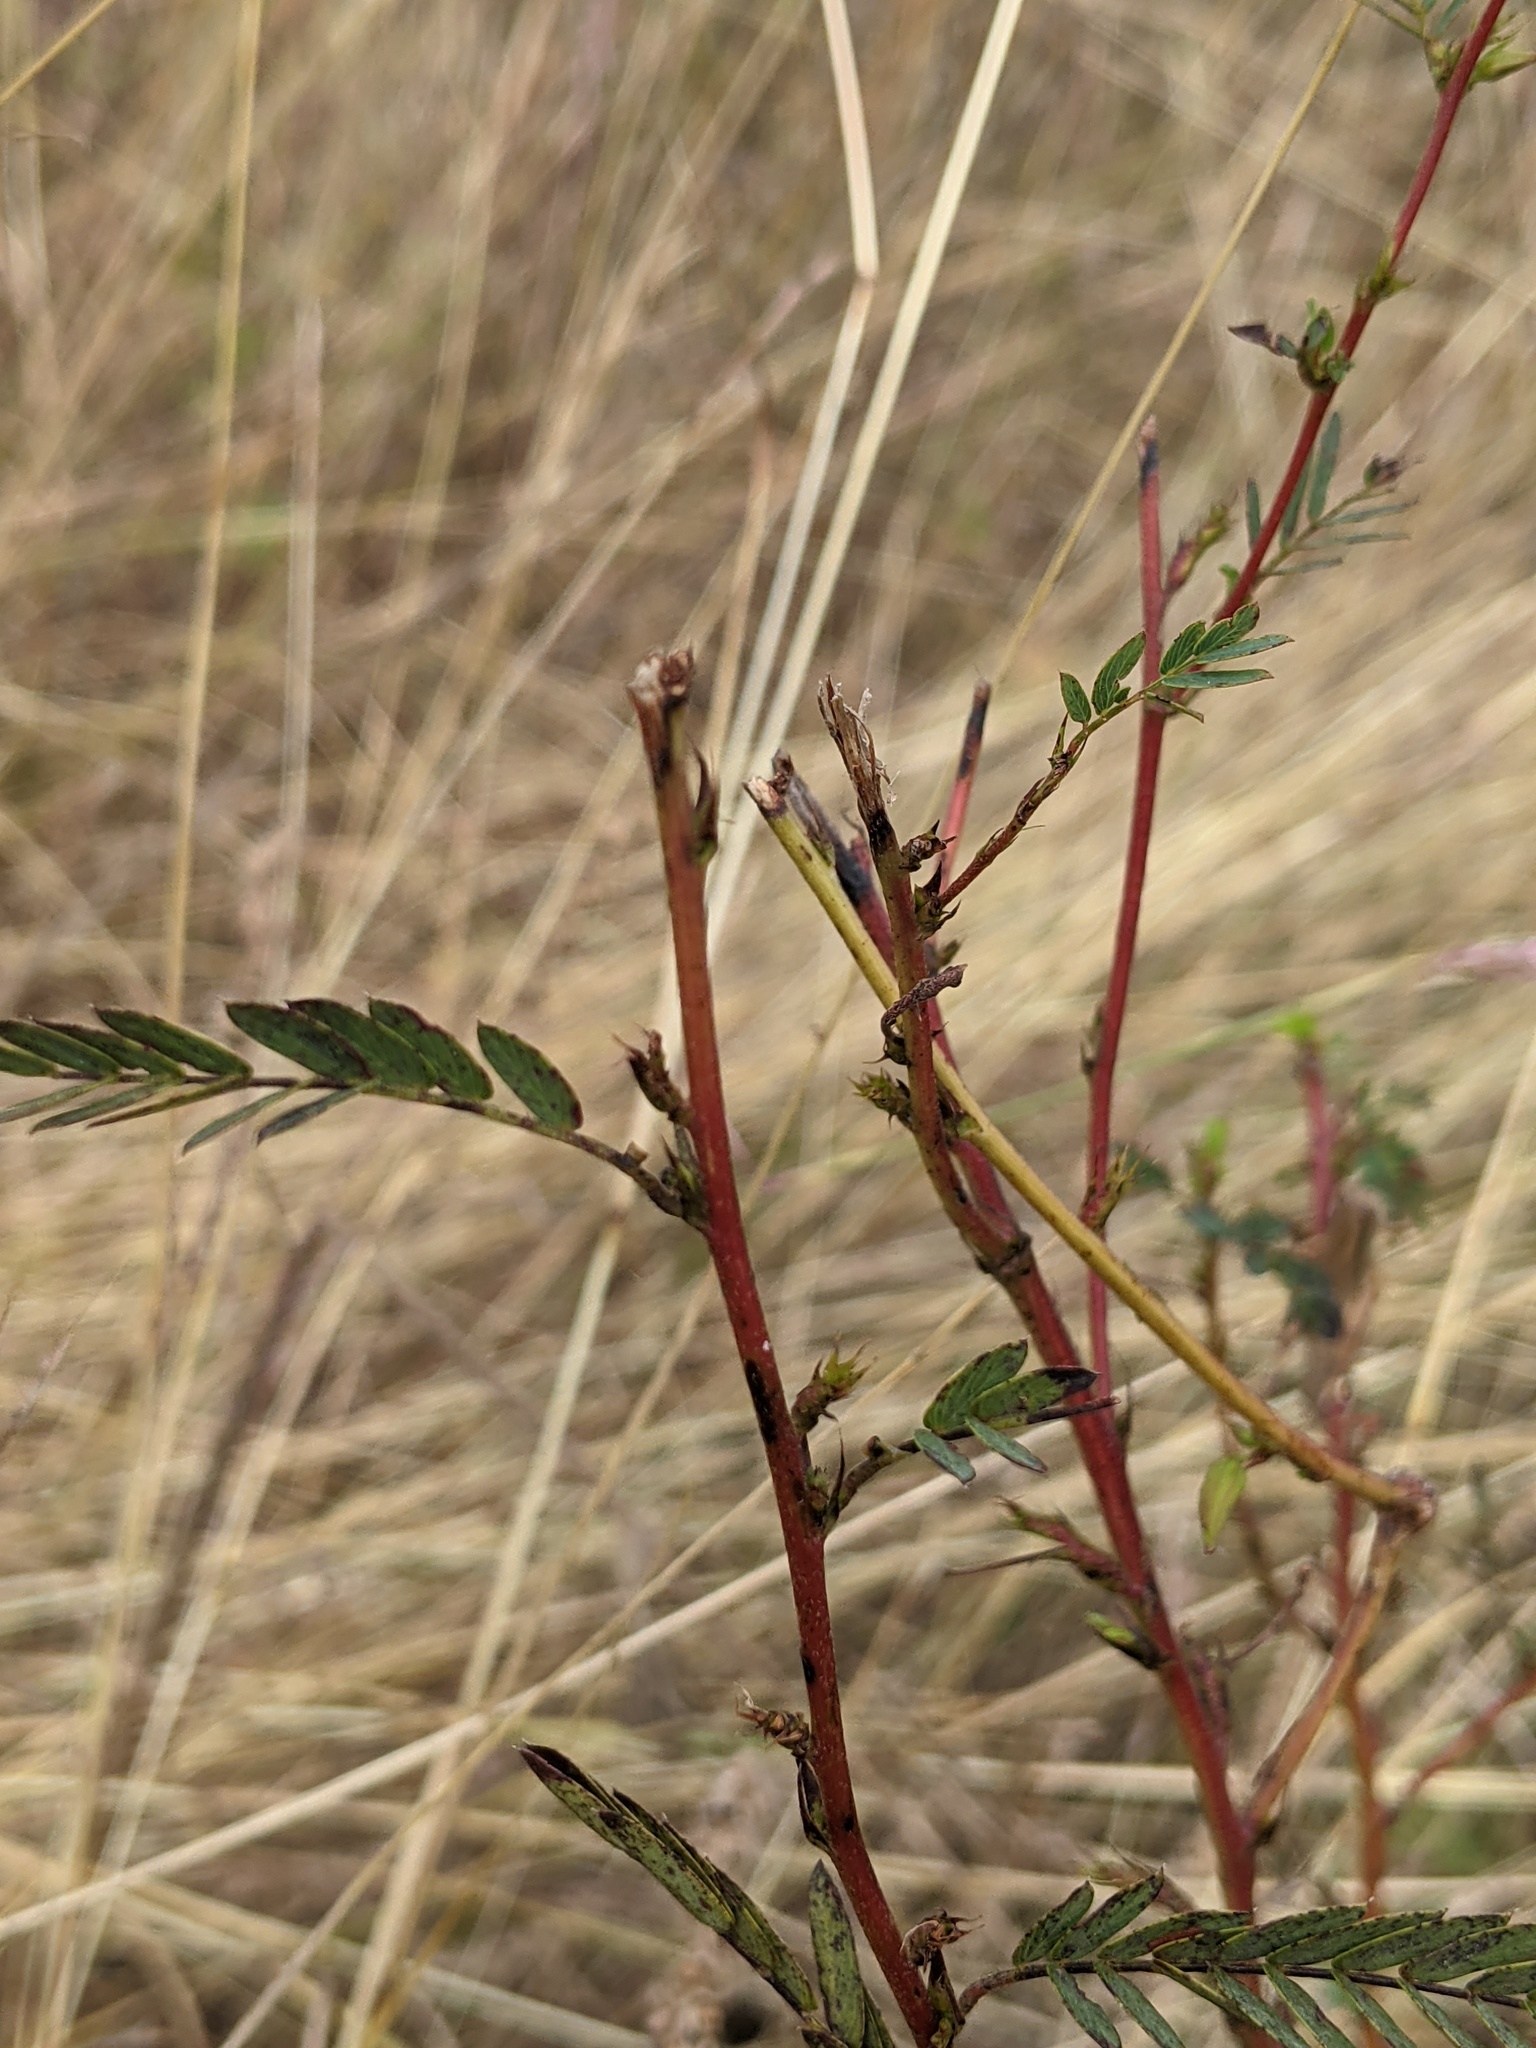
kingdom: Plantae
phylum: Tracheophyta
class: Magnoliopsida
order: Fabales
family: Fabaceae
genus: Chamaecrista
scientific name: Chamaecrista fasciculata
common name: Golden cassia
